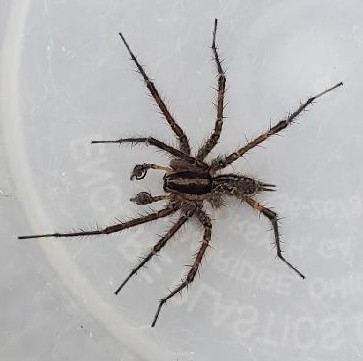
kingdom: Animalia
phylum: Arthropoda
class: Arachnida
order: Araneae
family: Agelenidae
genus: Agelenopsis
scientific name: Agelenopsis
